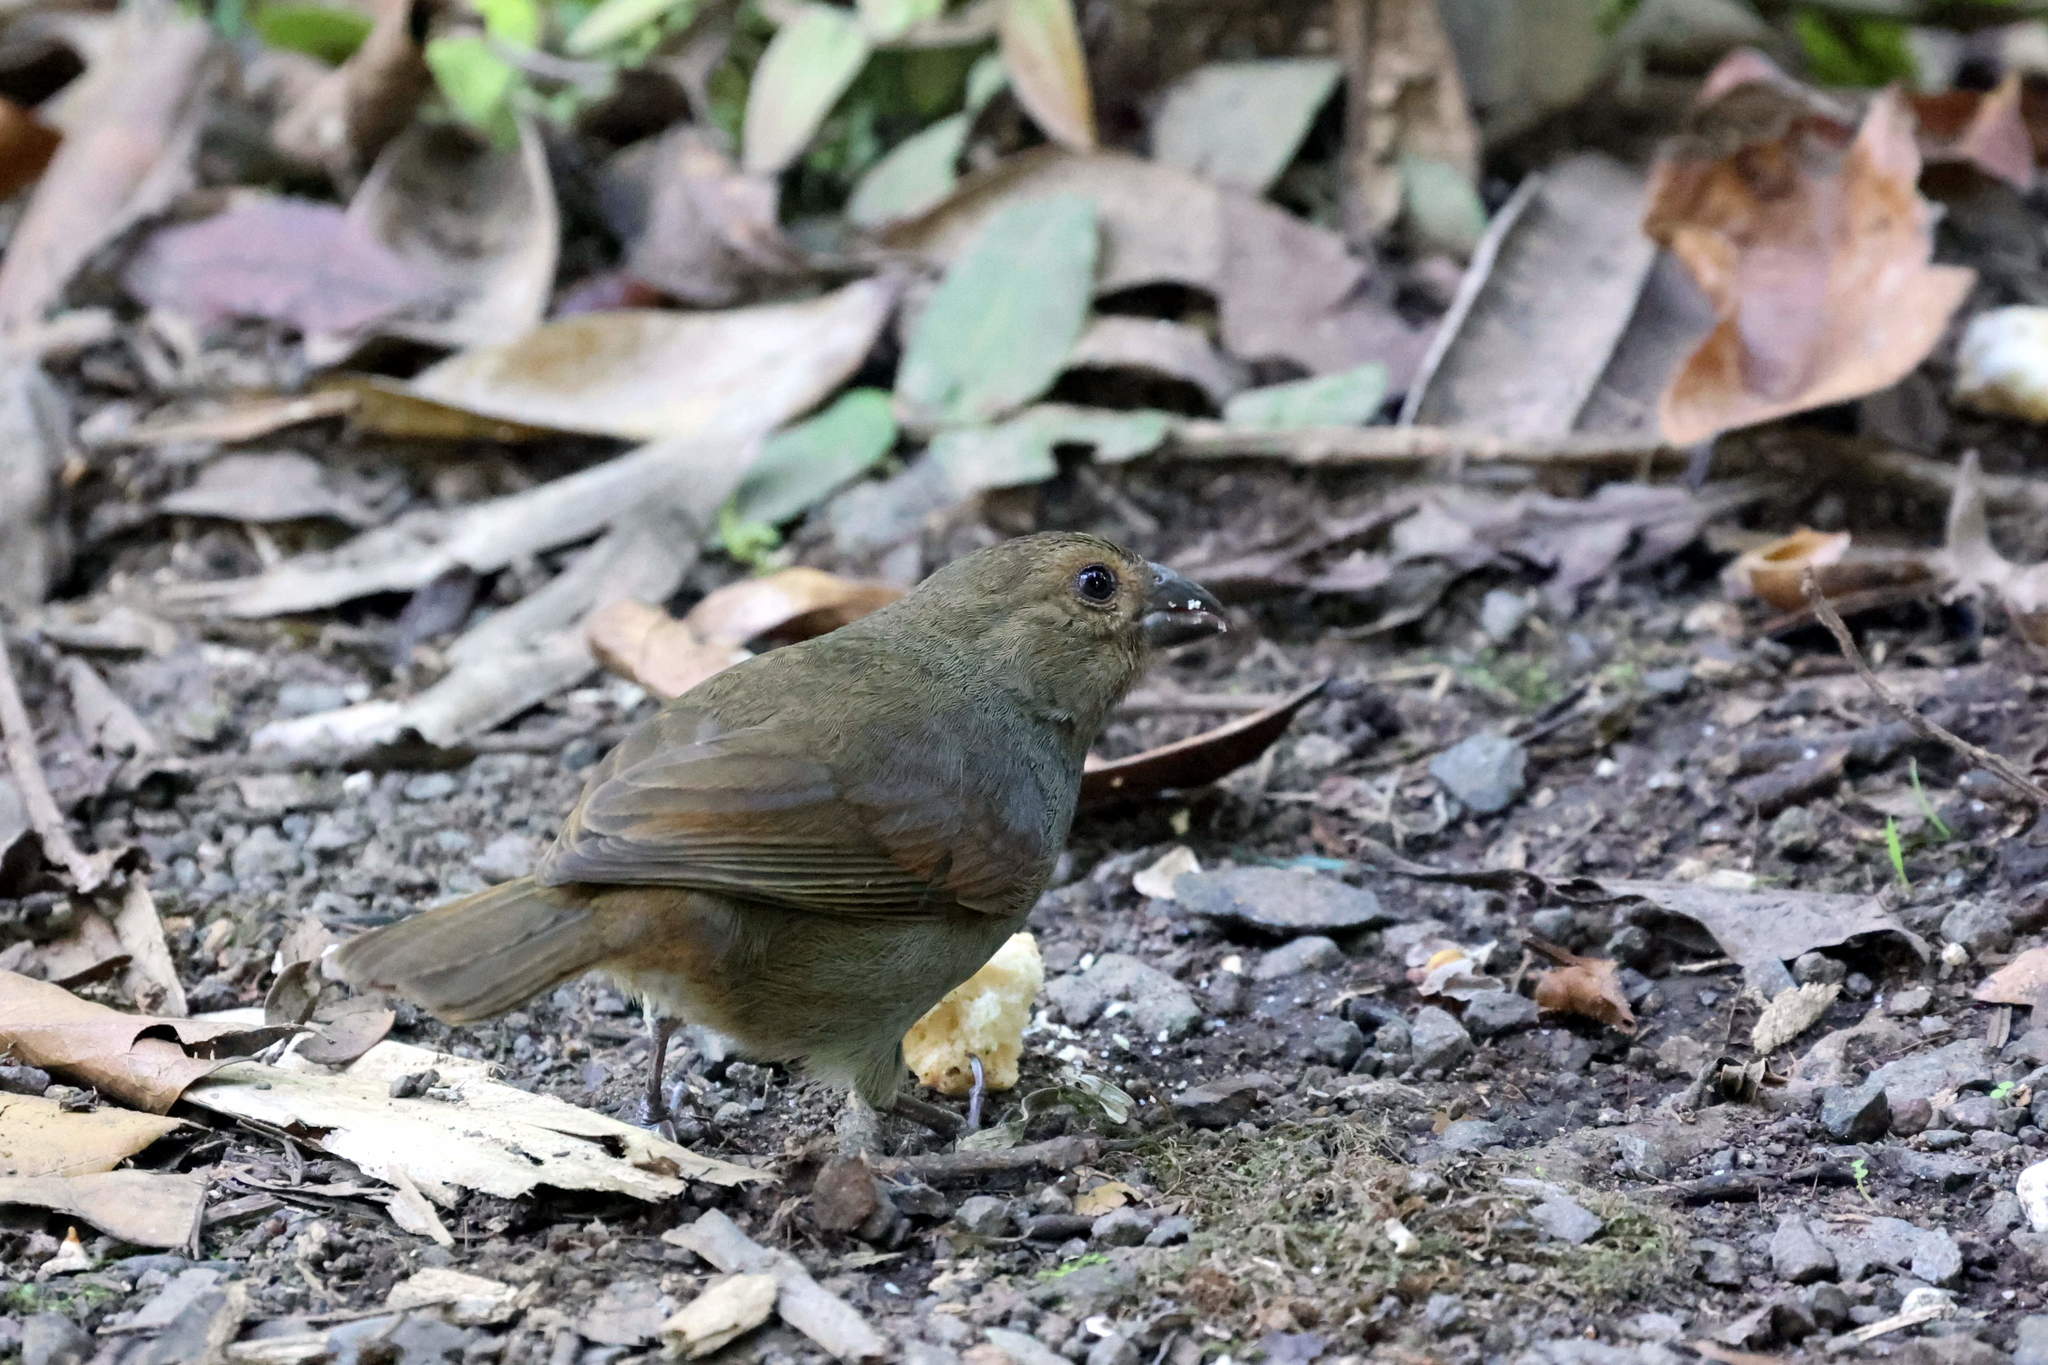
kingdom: Animalia
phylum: Chordata
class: Aves
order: Passeriformes
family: Thraupidae
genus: Loxigilla
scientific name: Loxigilla noctis
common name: Lesser antillean bullfinch
